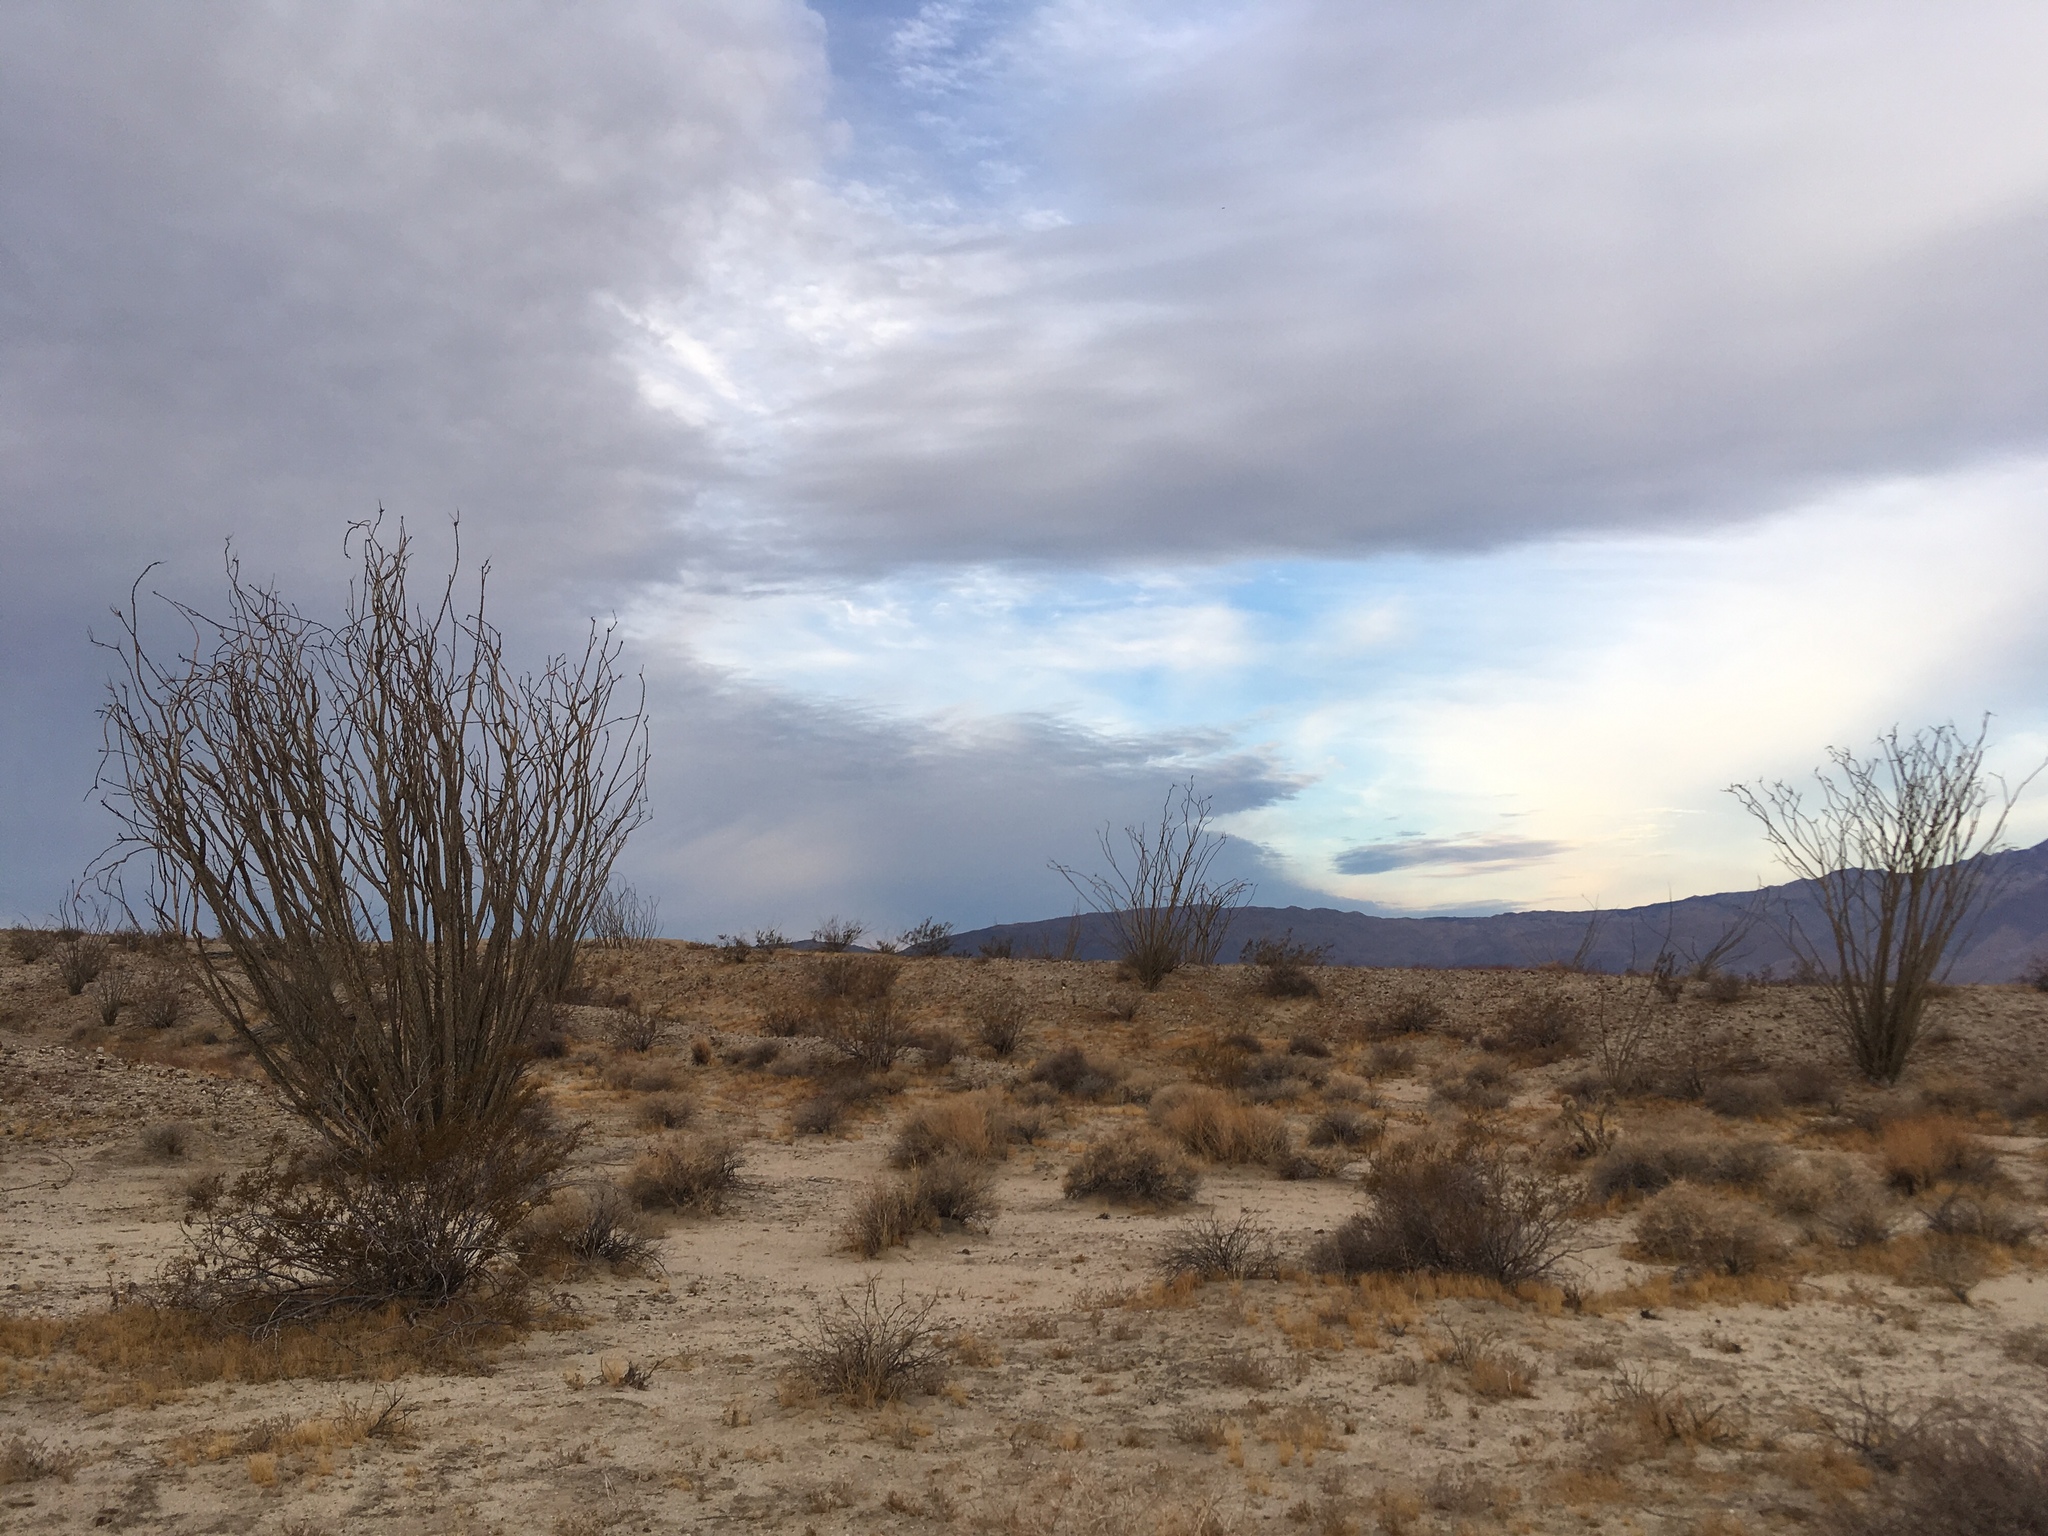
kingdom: Plantae
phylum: Tracheophyta
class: Magnoliopsida
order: Ericales
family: Fouquieriaceae
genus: Fouquieria
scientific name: Fouquieria splendens
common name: Vine-cactus
